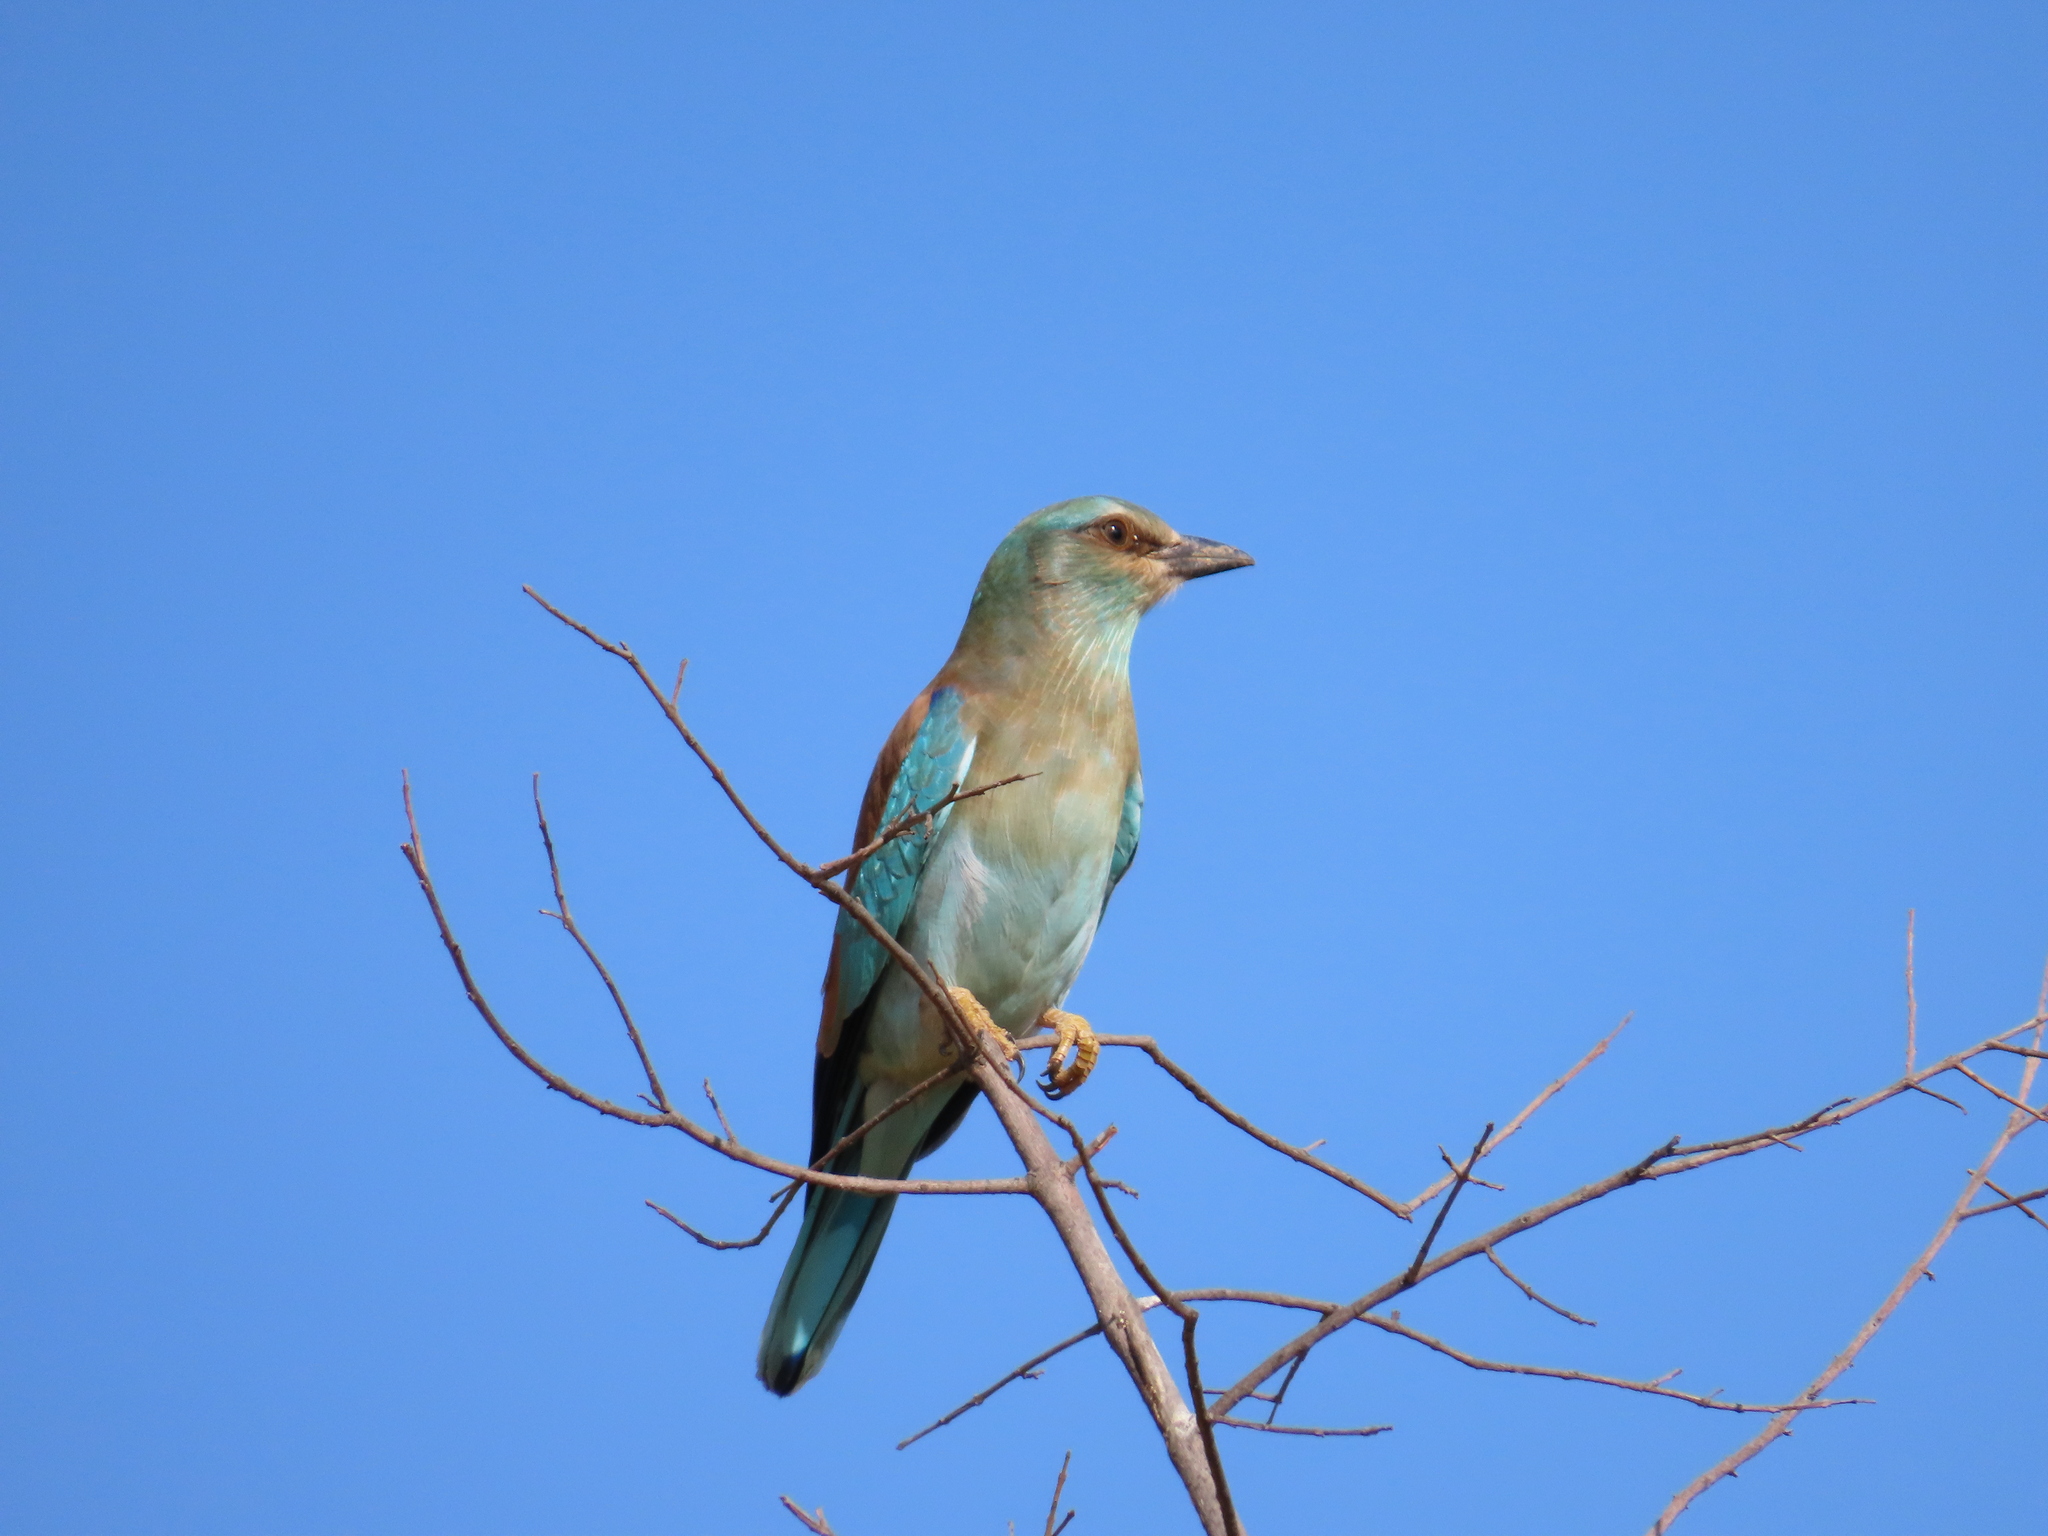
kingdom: Animalia
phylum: Chordata
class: Aves
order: Coraciiformes
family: Coraciidae
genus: Coracias
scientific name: Coracias caudatus
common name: Lilac-breasted roller
